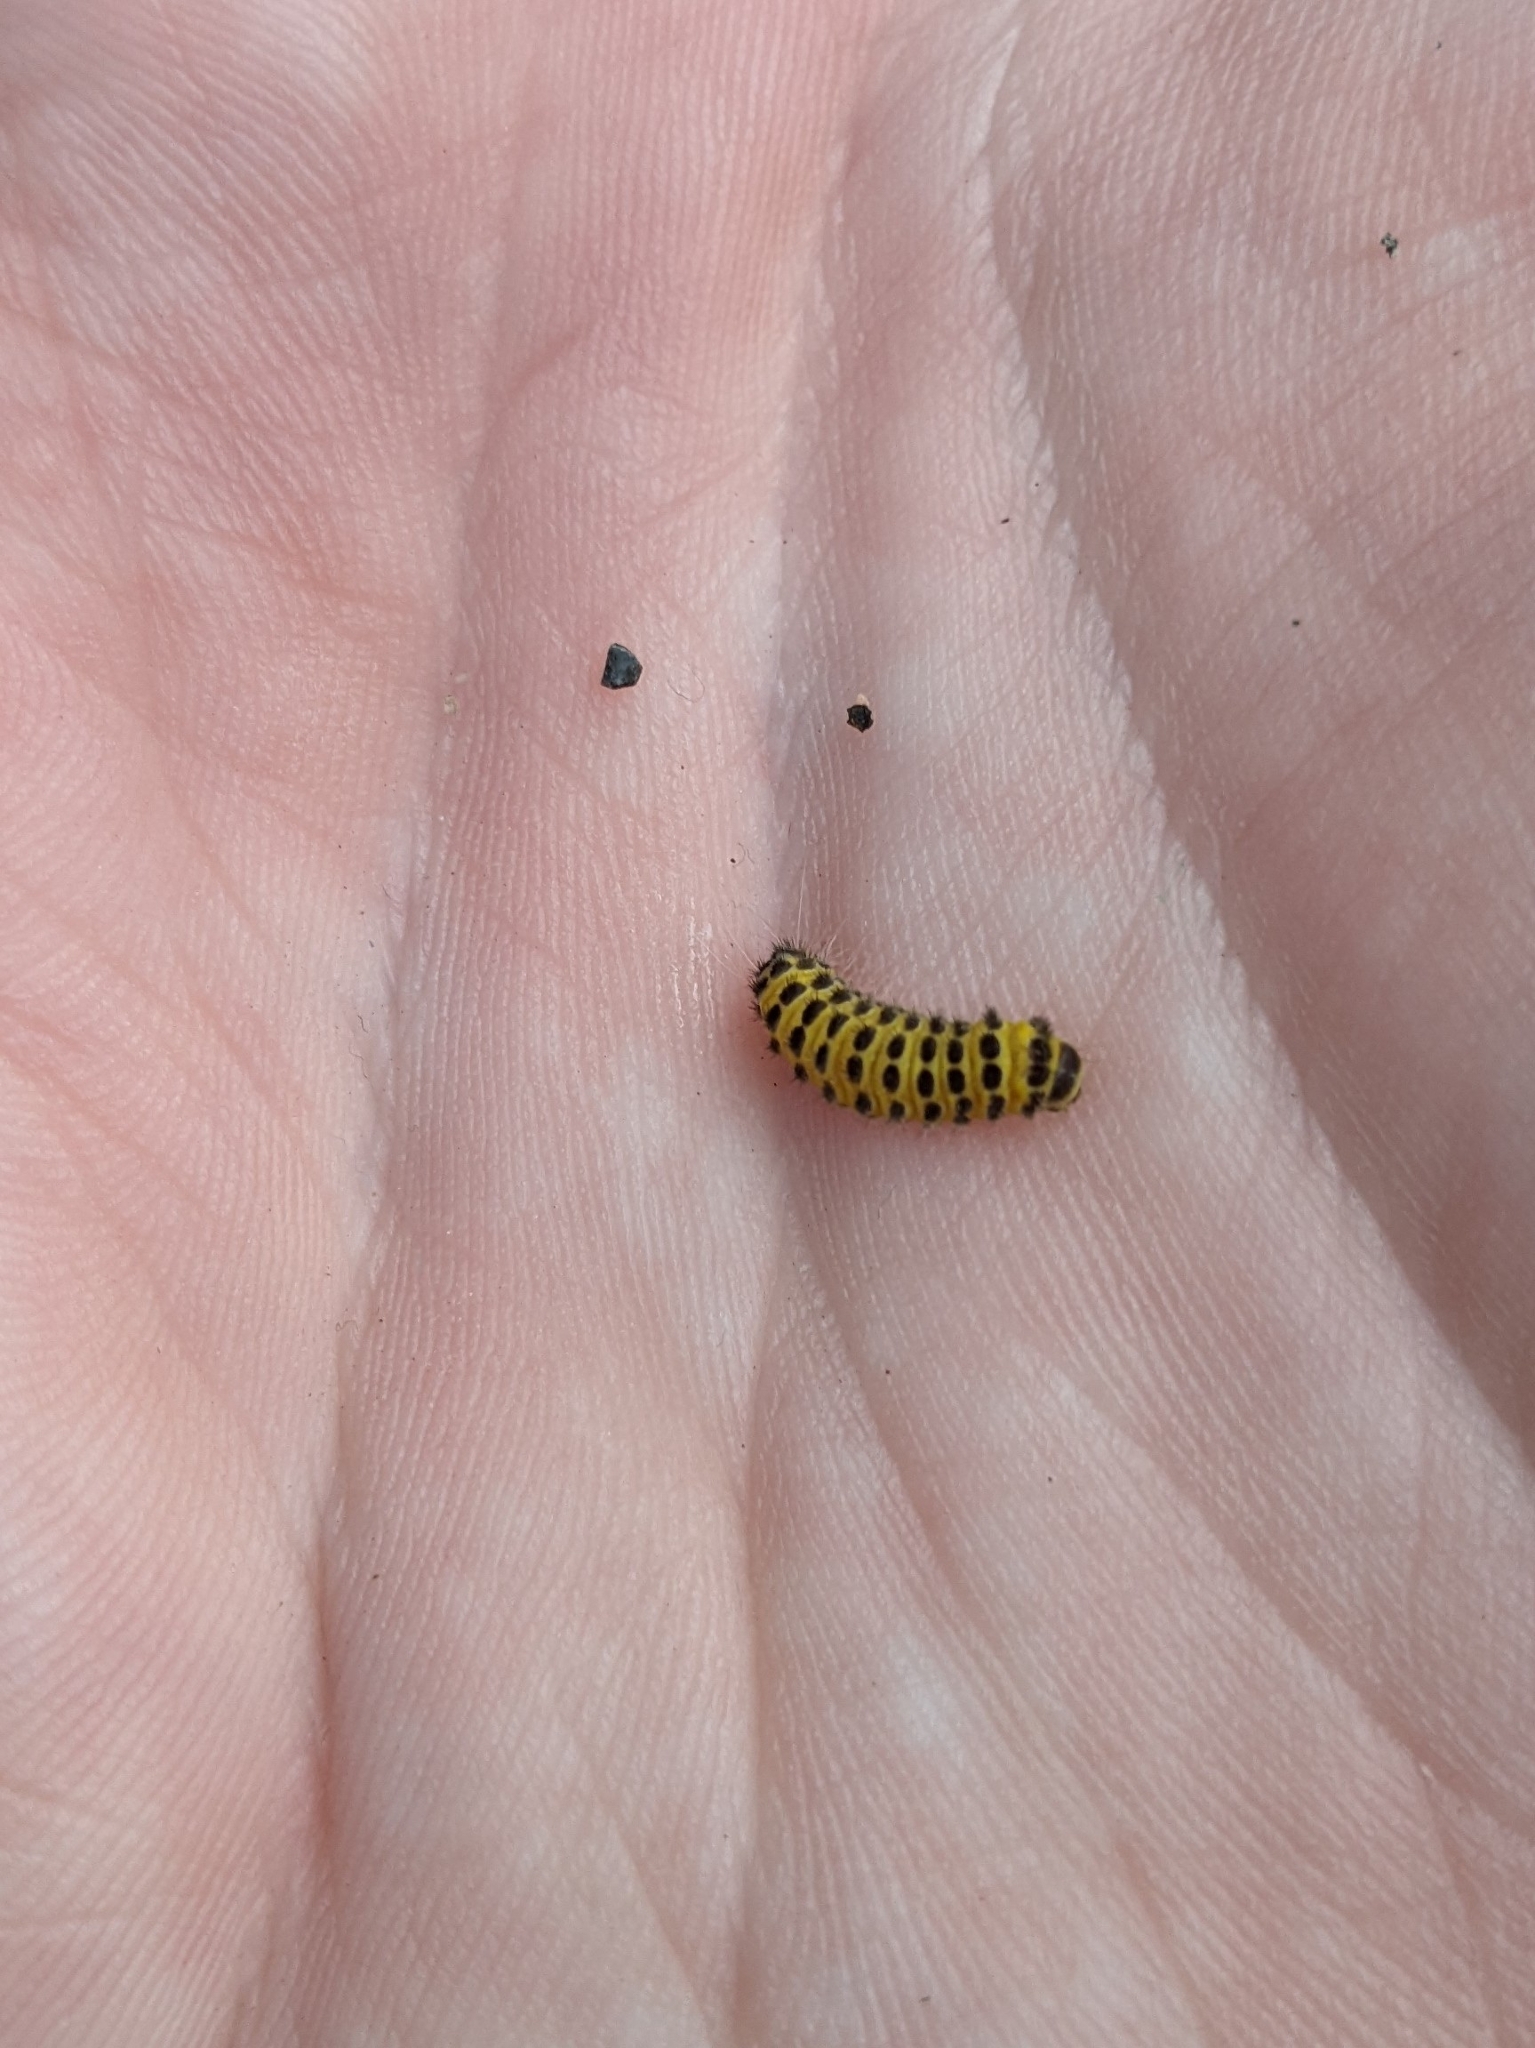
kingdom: Animalia
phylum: Arthropoda
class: Insecta
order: Lepidoptera
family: Zygaenidae
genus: Harrisina
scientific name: Harrisina americana
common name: Grapeleaf skeletonizer moth
